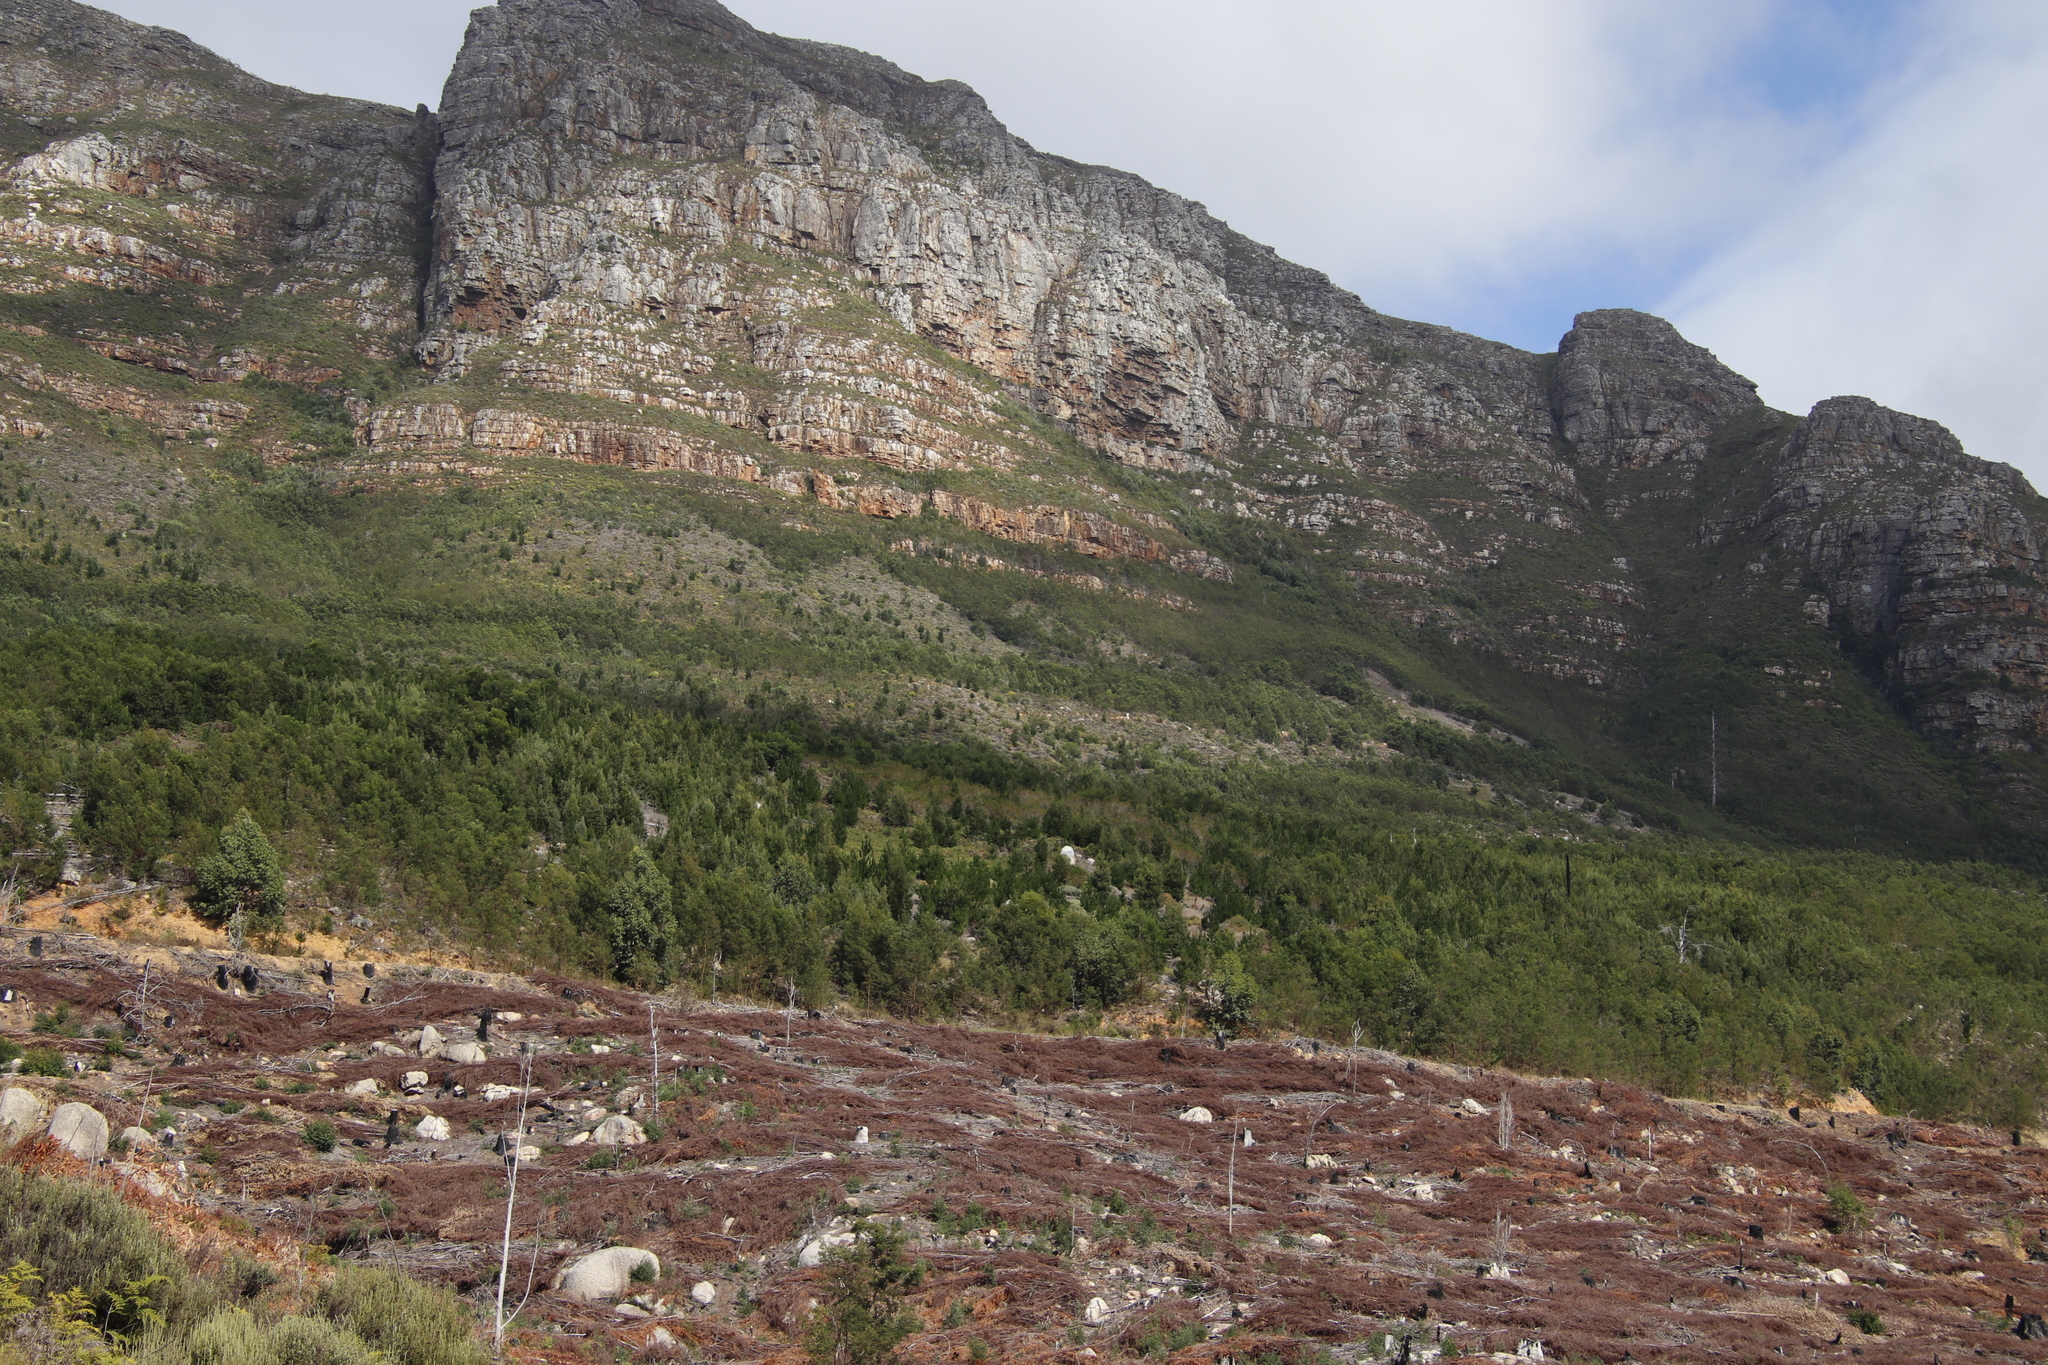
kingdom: Plantae
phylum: Tracheophyta
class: Pinopsida
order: Pinales
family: Pinaceae
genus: Pinus
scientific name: Pinus radiata
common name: Monterey pine
